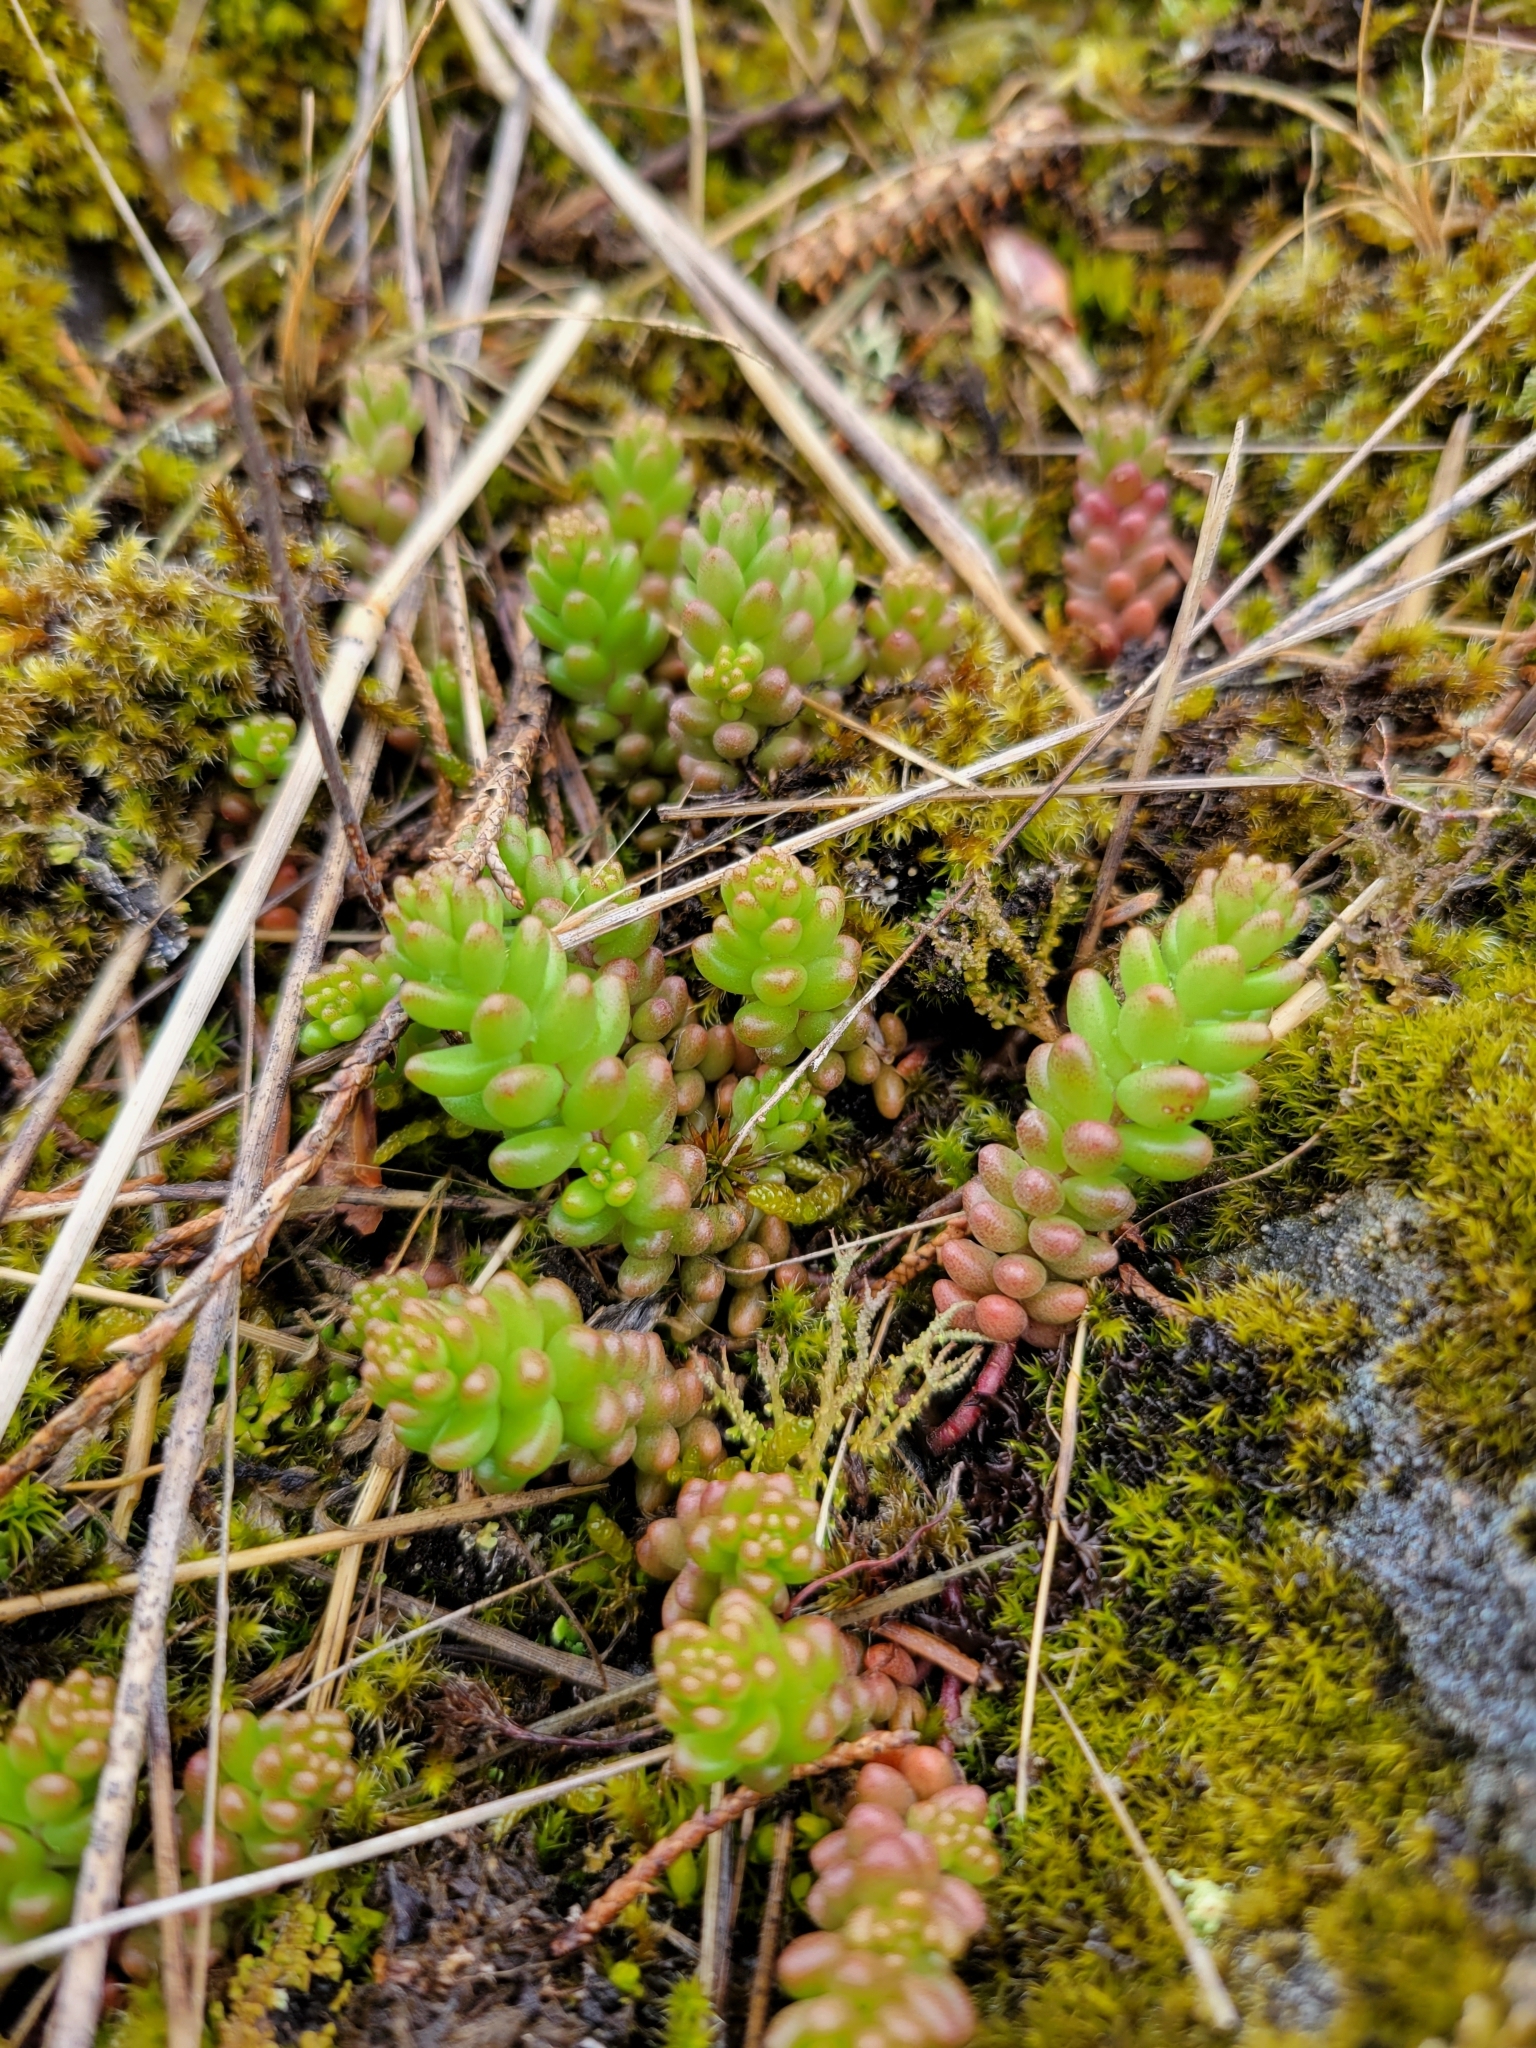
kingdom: Plantae
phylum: Tracheophyta
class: Magnoliopsida
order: Saxifragales
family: Crassulaceae
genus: Sedum
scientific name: Sedum album
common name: White stonecrop
